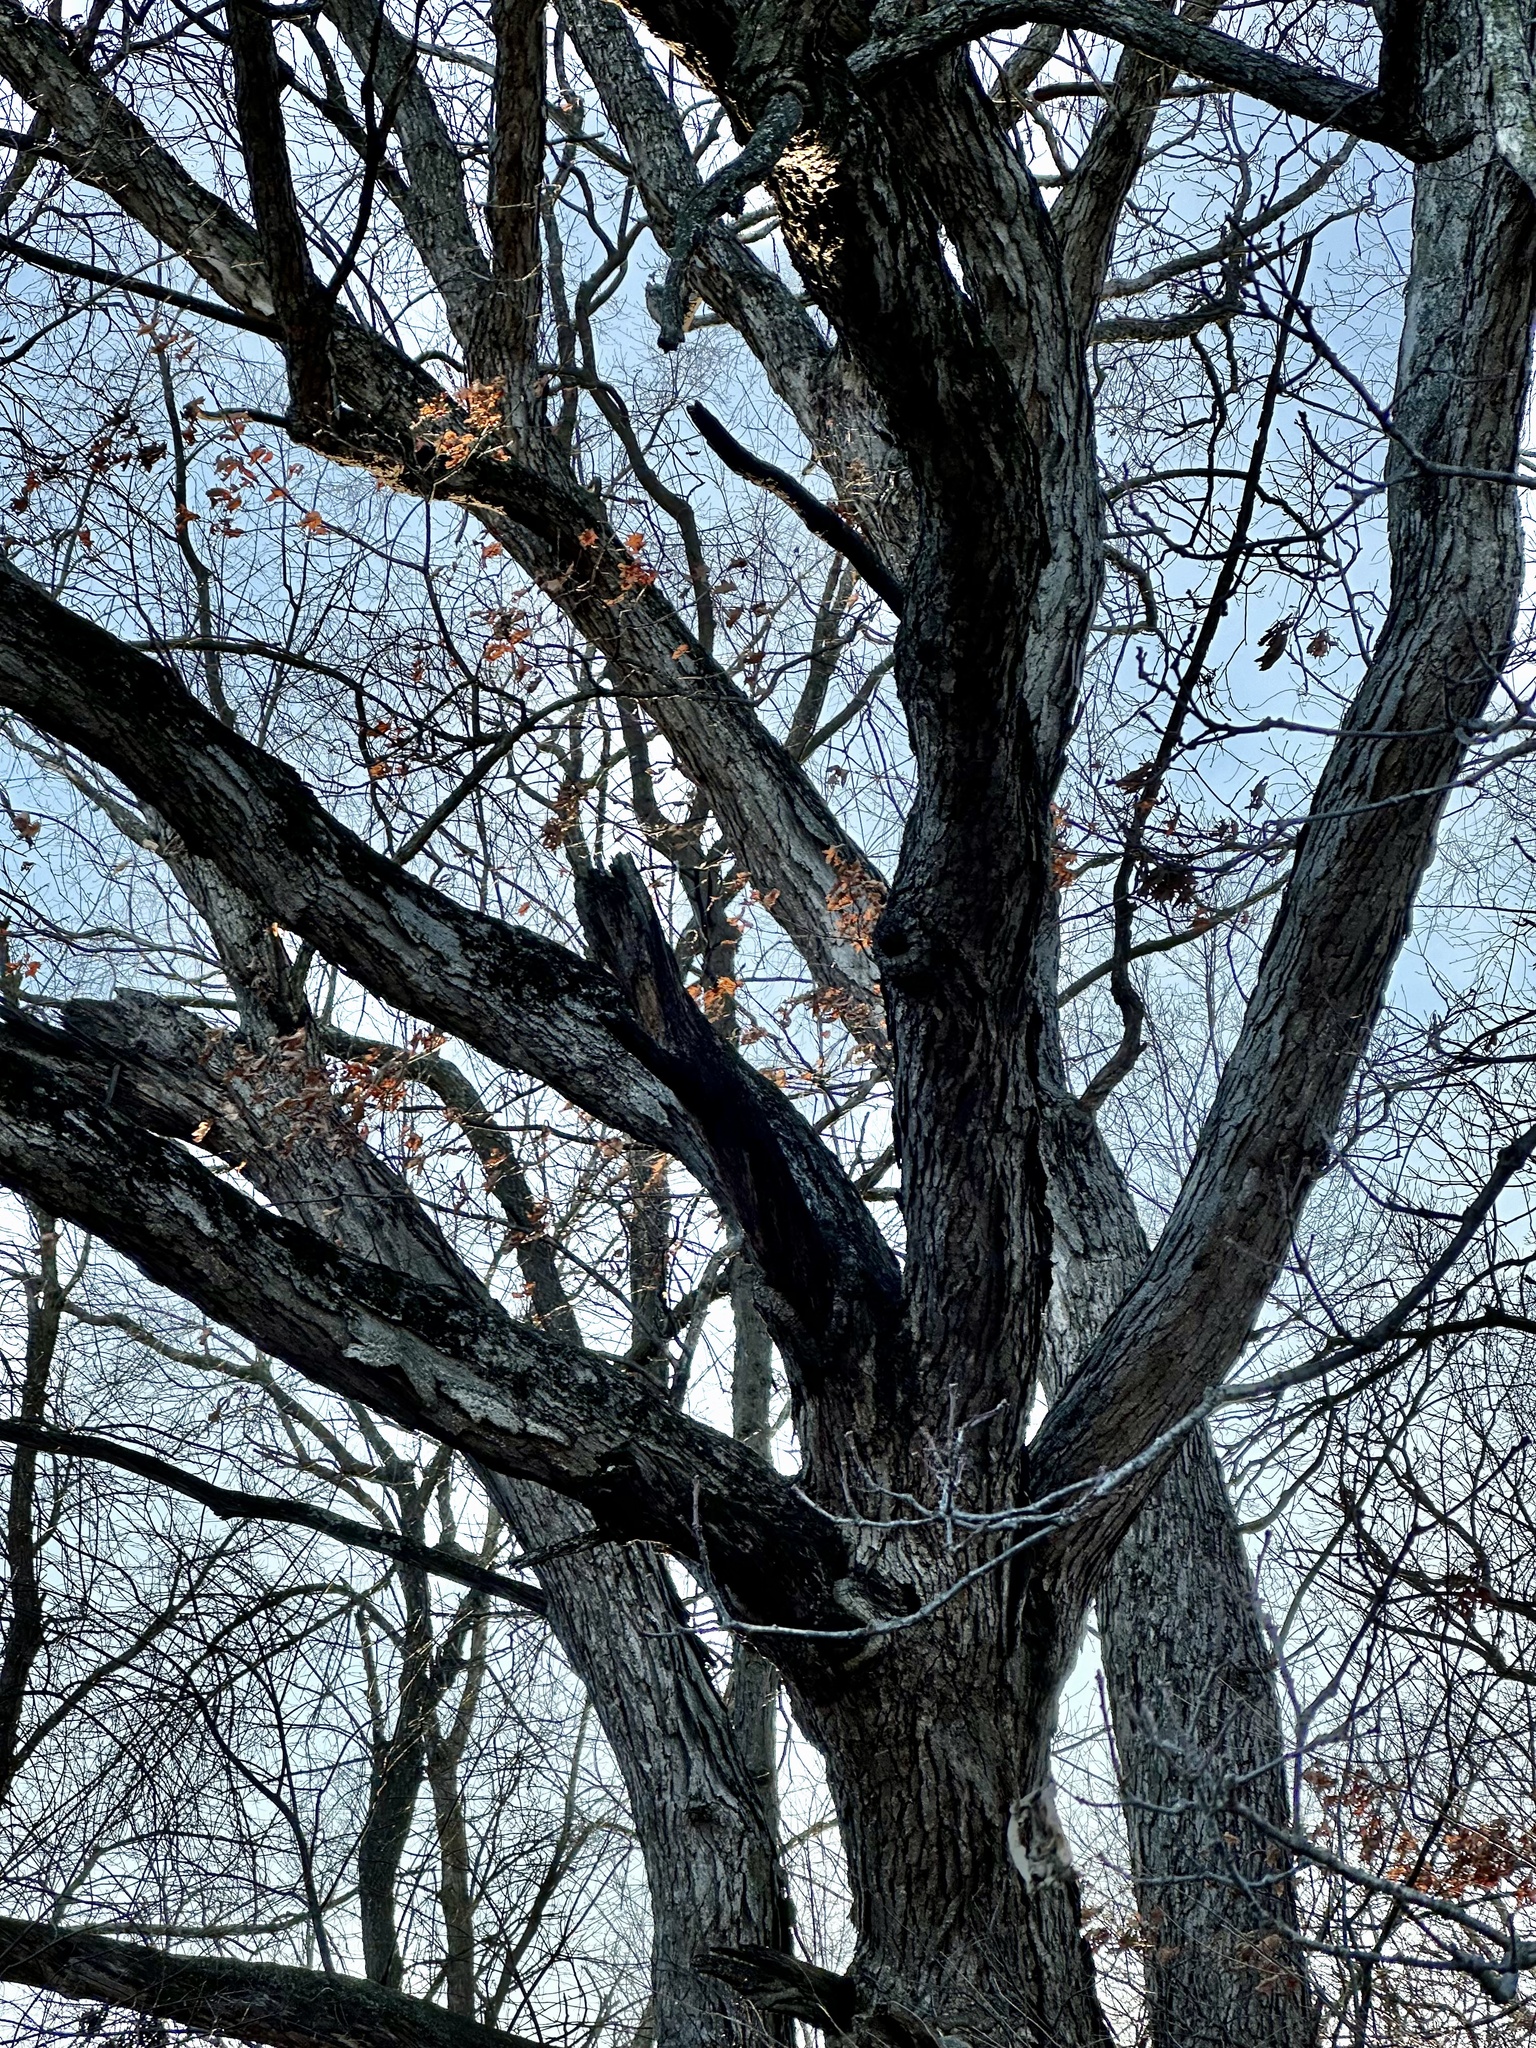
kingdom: Plantae
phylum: Tracheophyta
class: Magnoliopsida
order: Fagales
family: Fagaceae
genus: Quercus
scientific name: Quercus alba
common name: White oak
